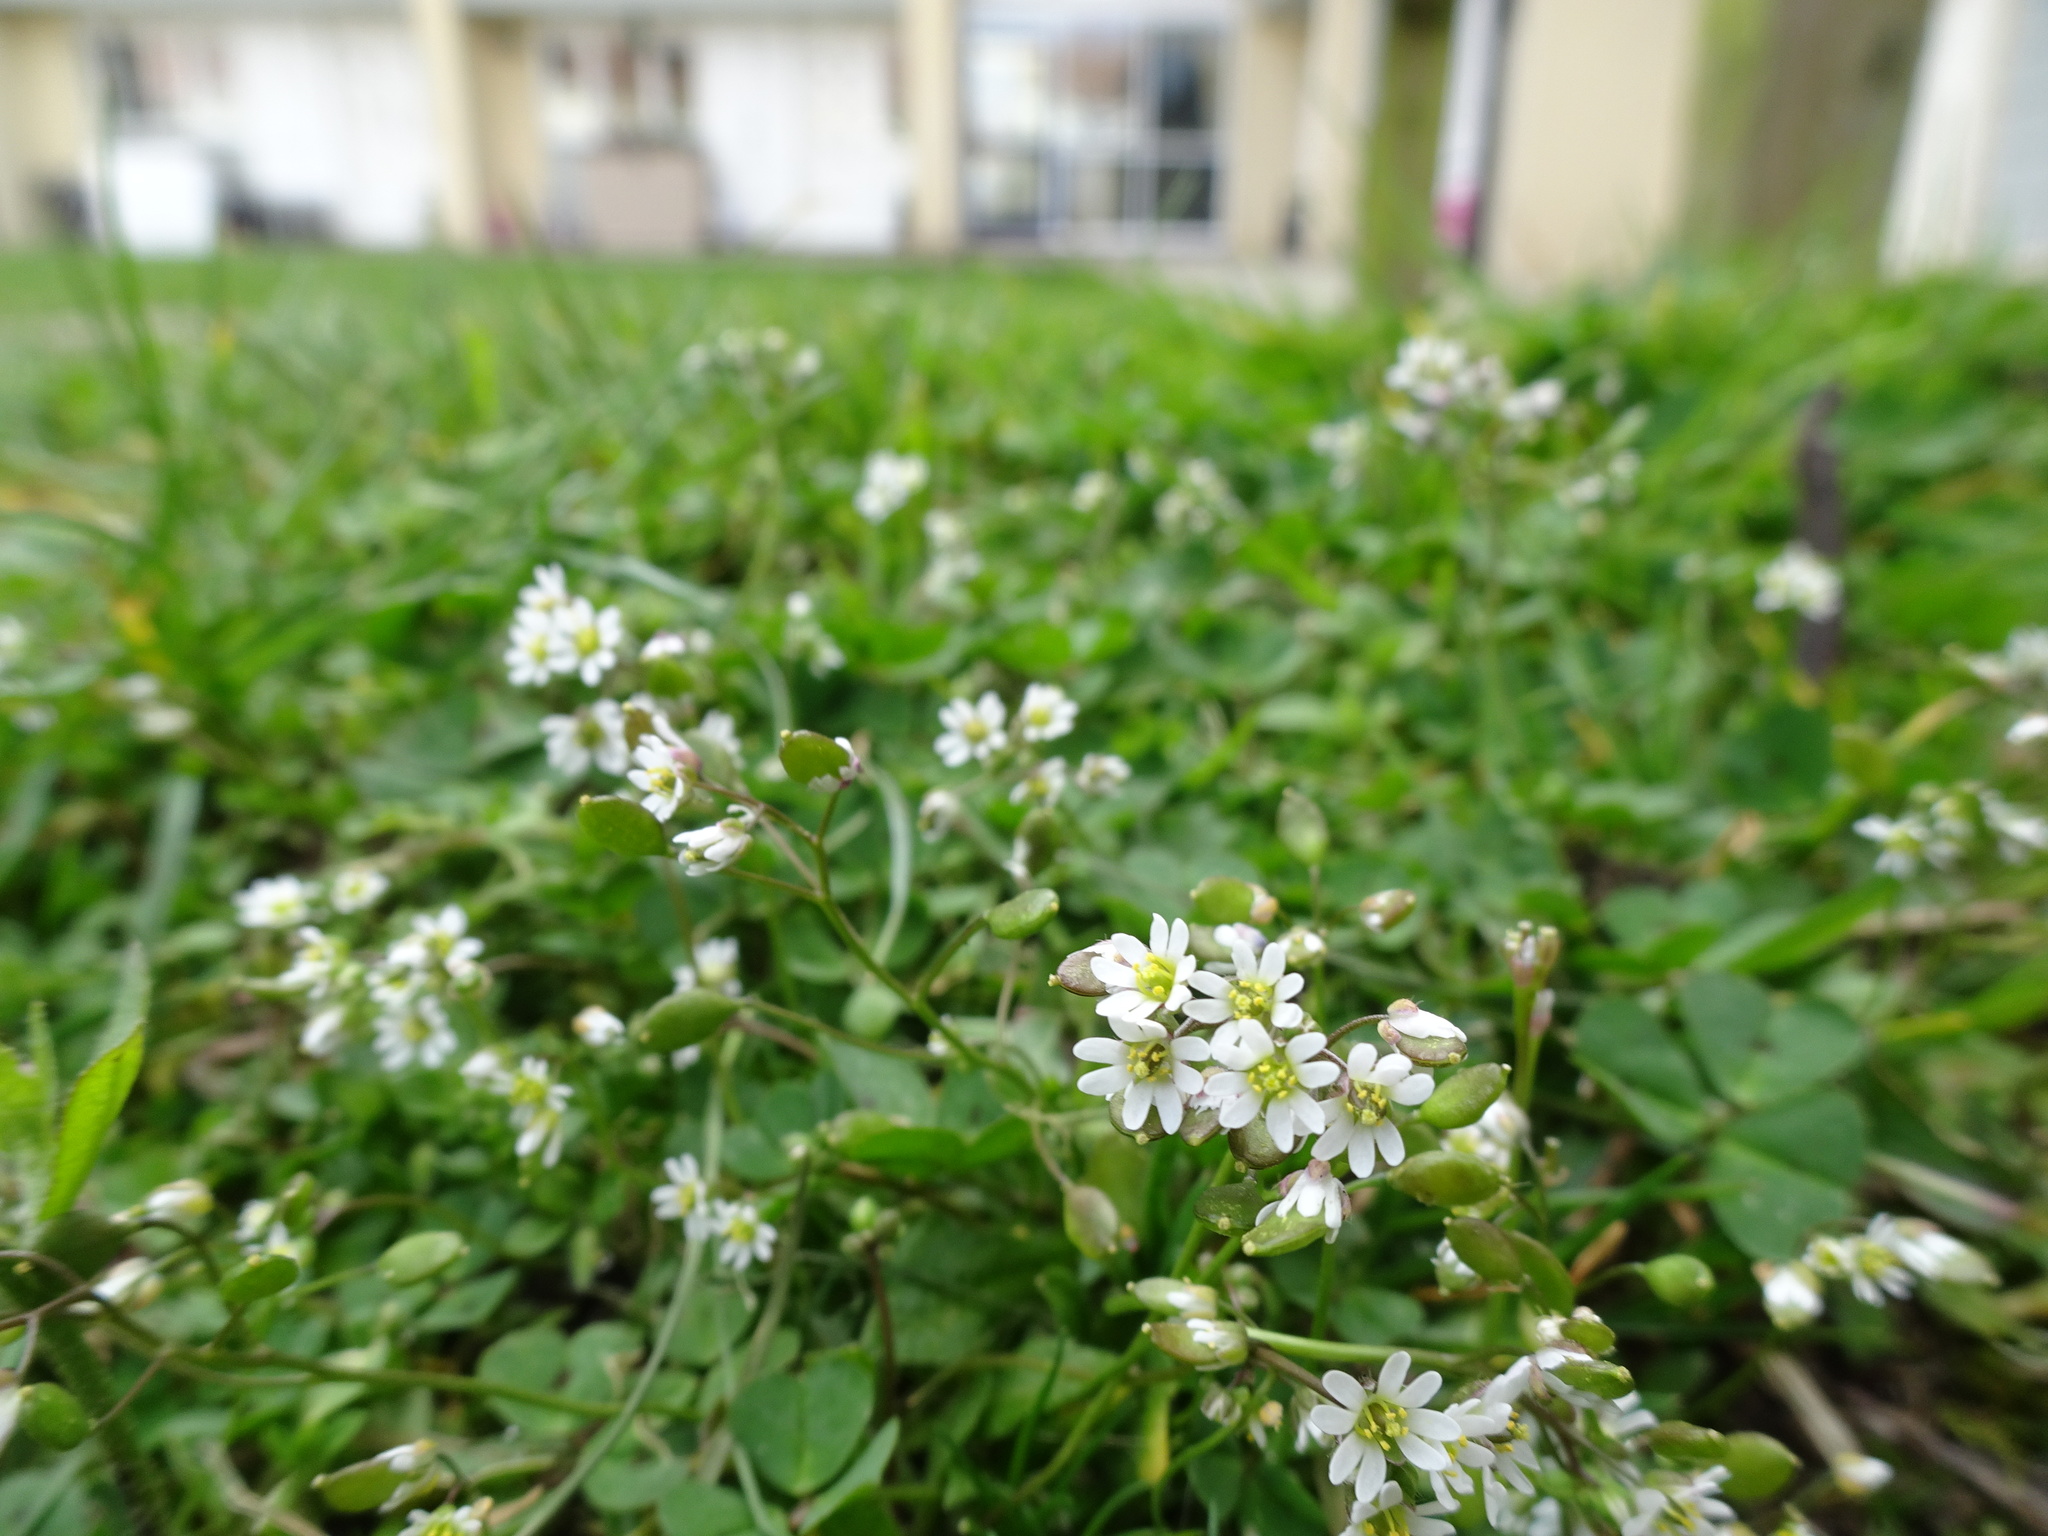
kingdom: Plantae
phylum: Tracheophyta
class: Magnoliopsida
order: Brassicales
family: Brassicaceae
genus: Draba
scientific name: Draba verna
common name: Spring draba
